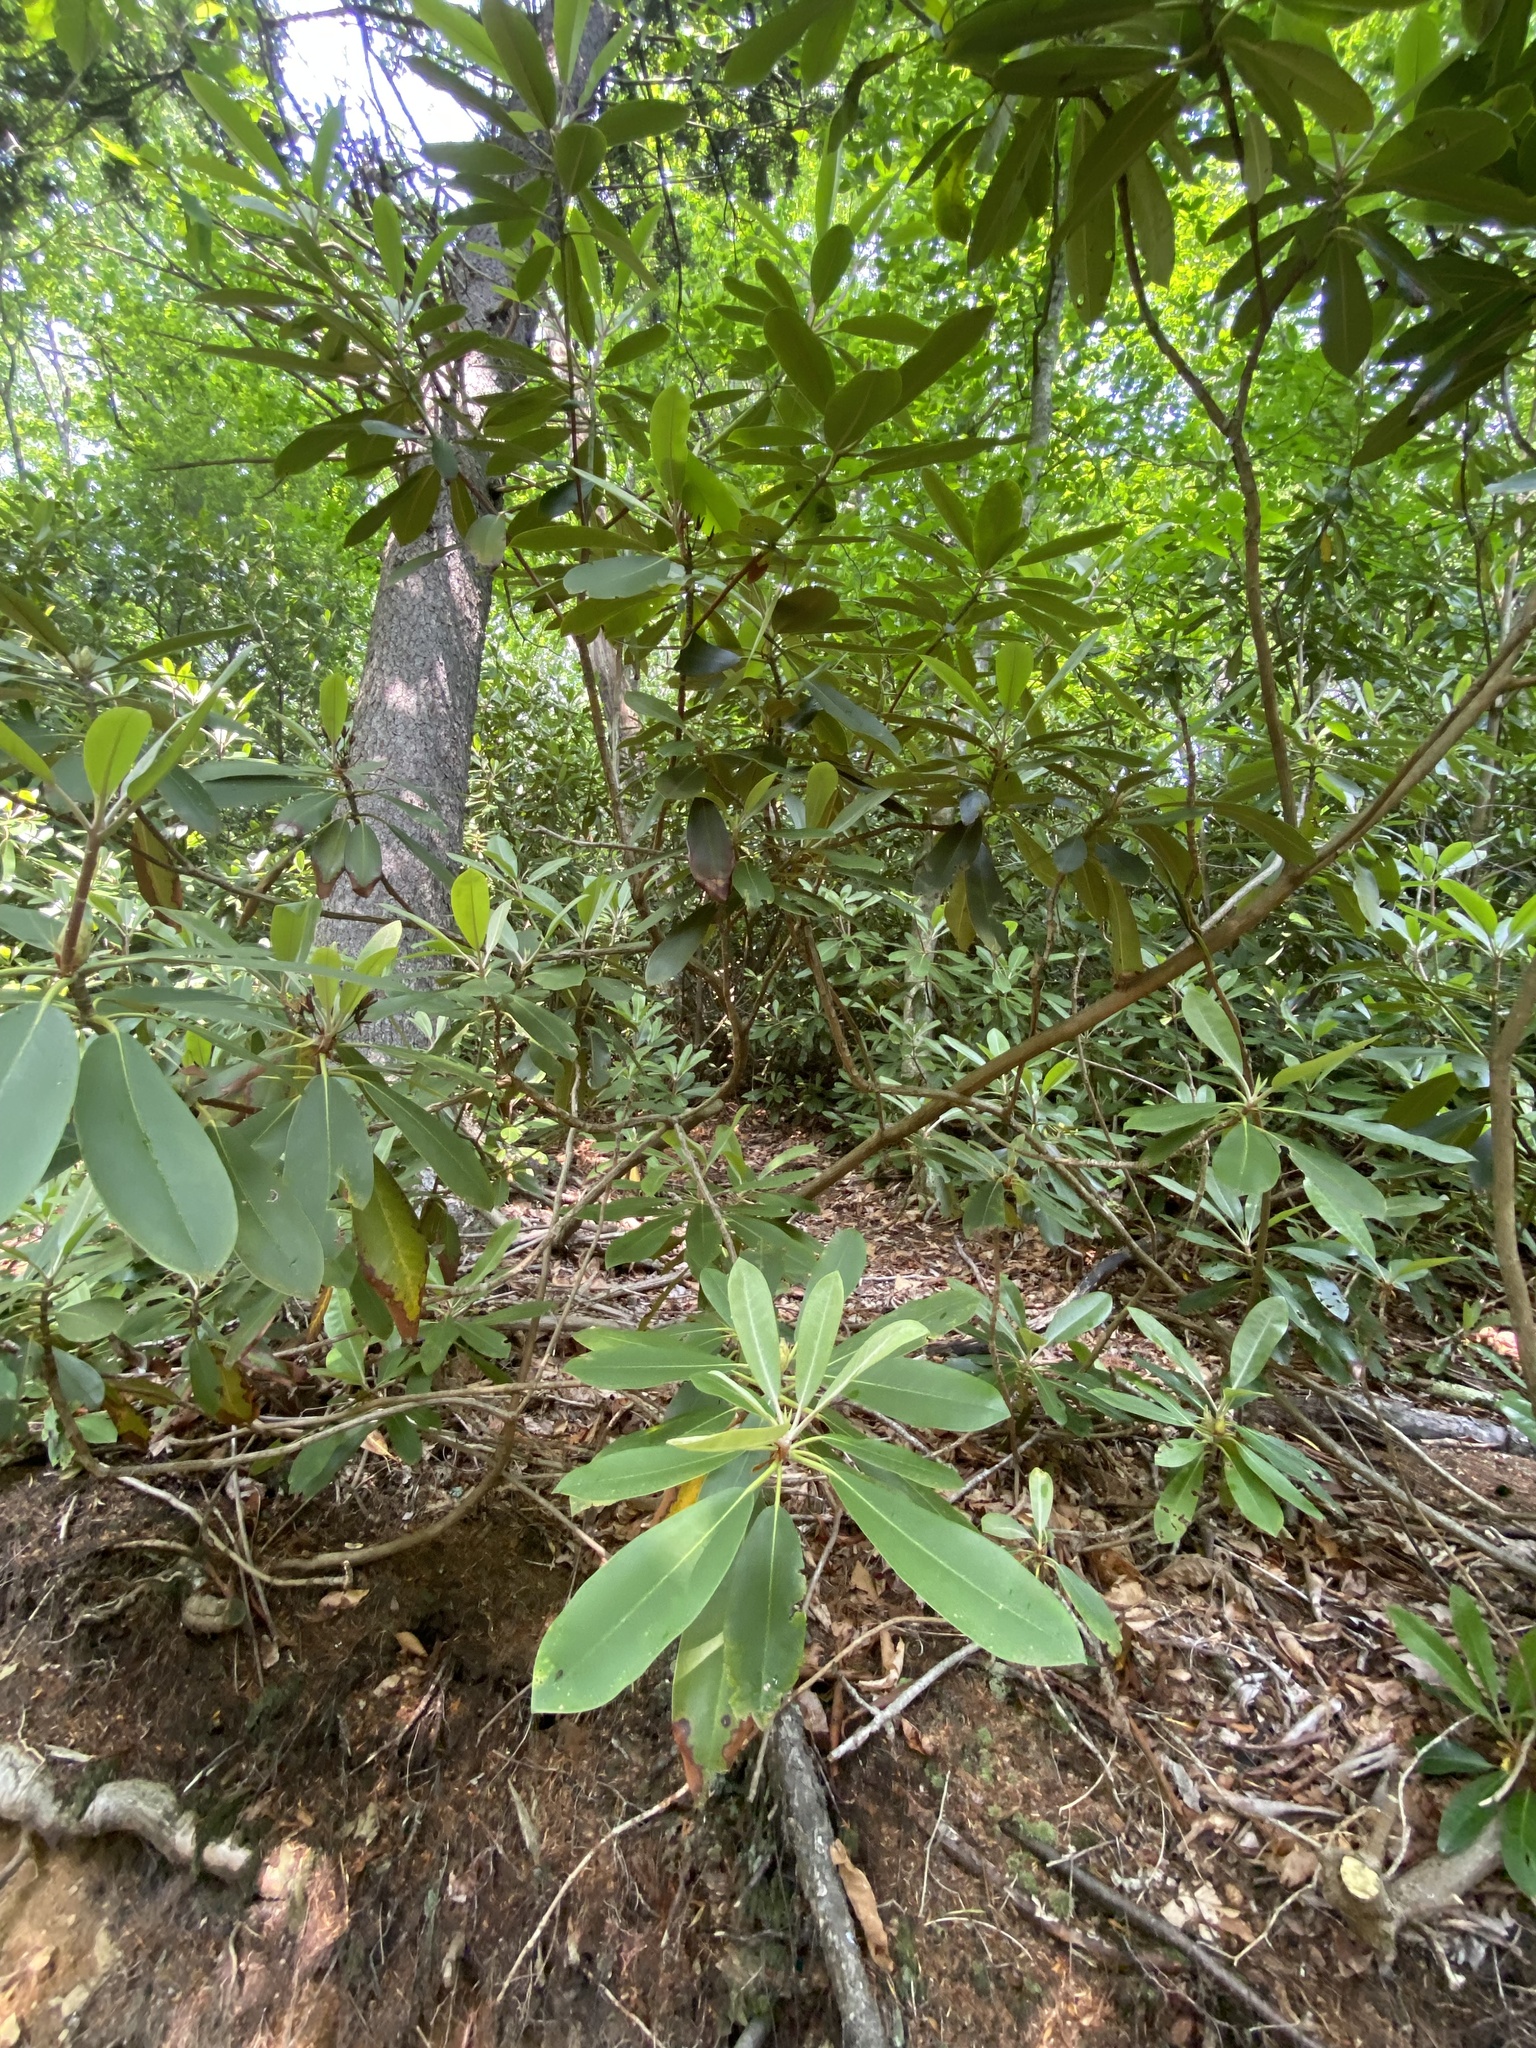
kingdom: Plantae
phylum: Tracheophyta
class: Magnoliopsida
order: Ericales
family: Ericaceae
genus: Rhododendron
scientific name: Rhododendron maximum
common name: Great rhododendron
